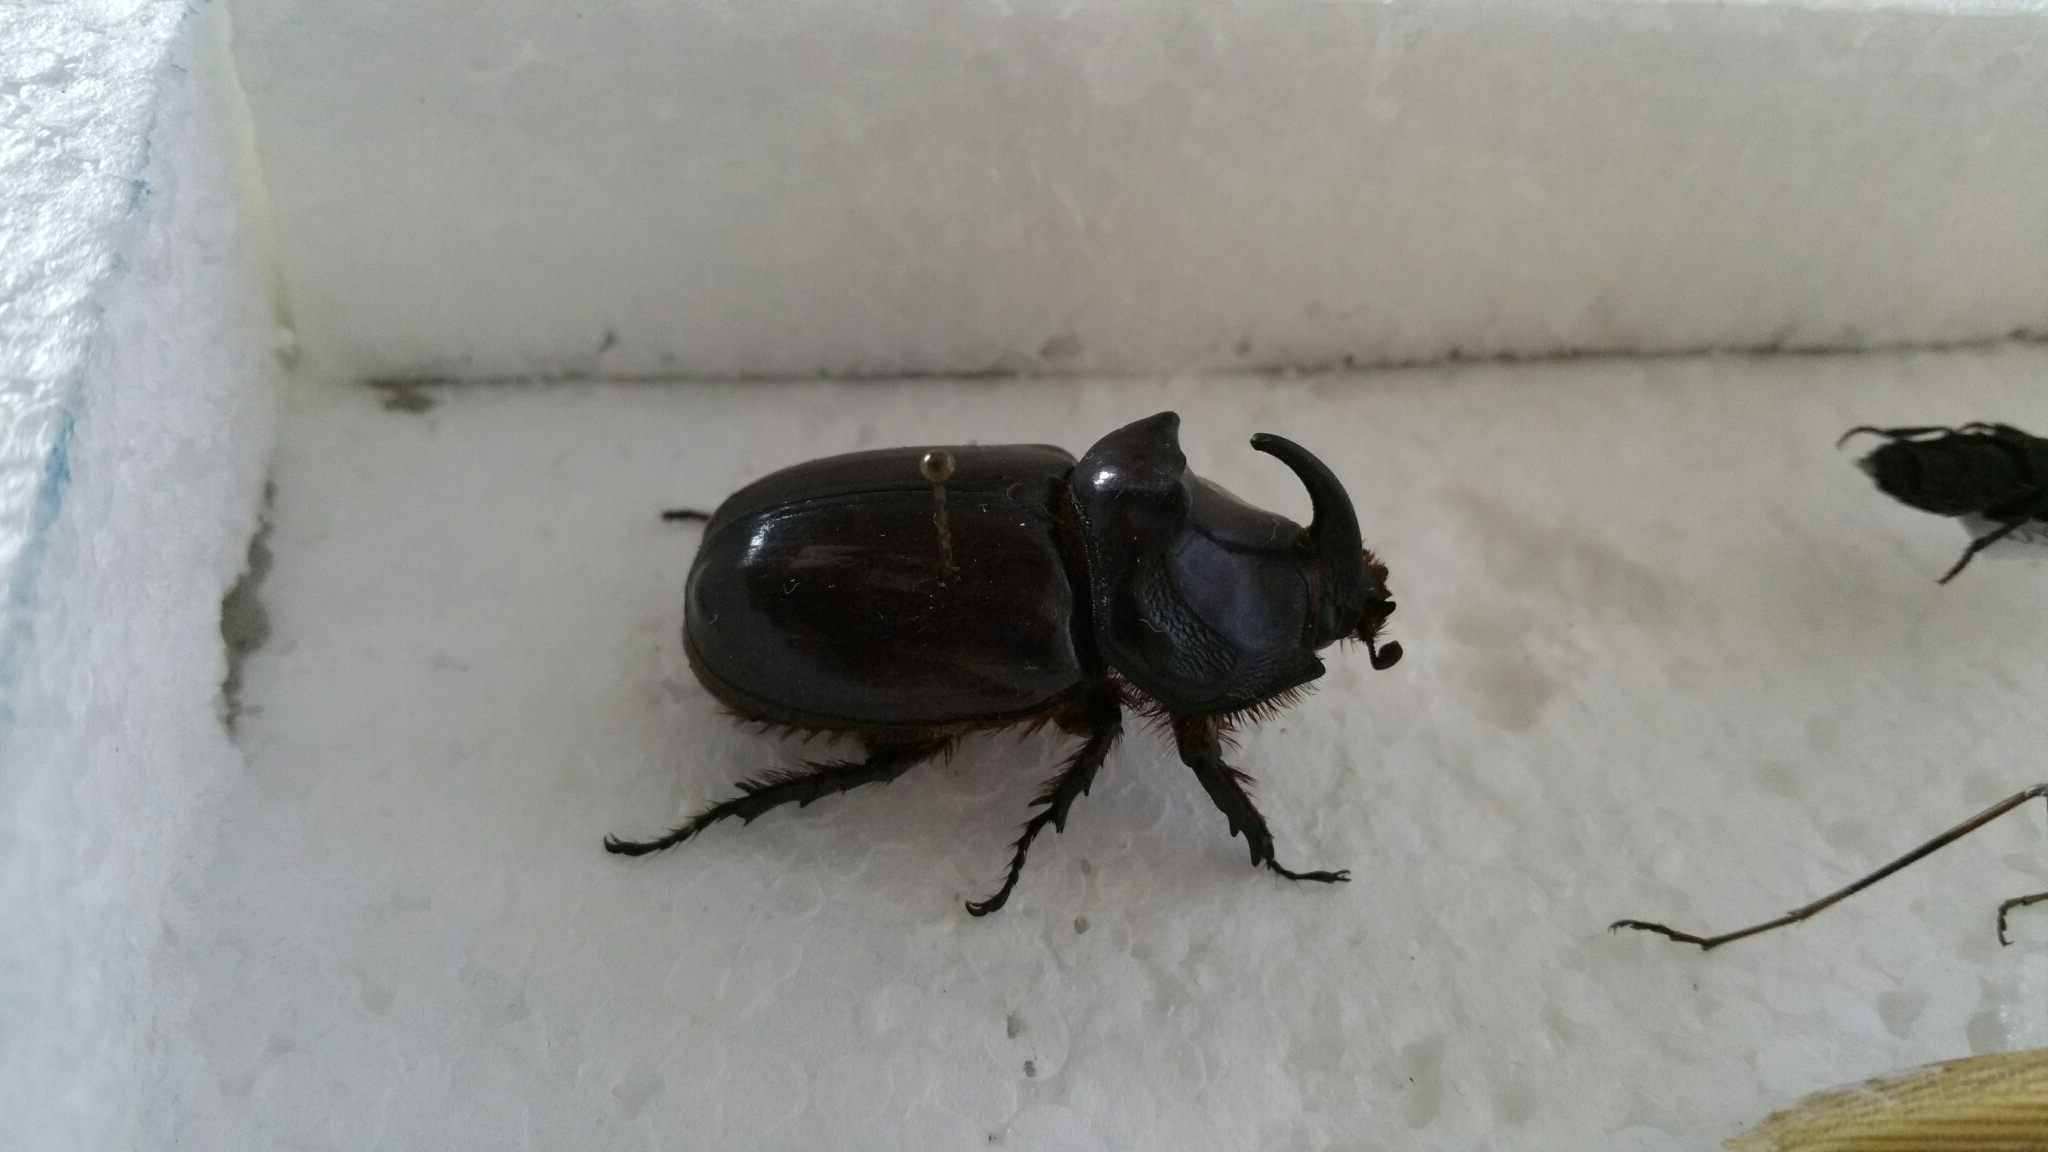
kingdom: Animalia
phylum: Arthropoda
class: Insecta
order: Coleoptera
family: Scarabaeidae
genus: Oryctes
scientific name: Oryctes nasicornis
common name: European rhinoceros beetle
